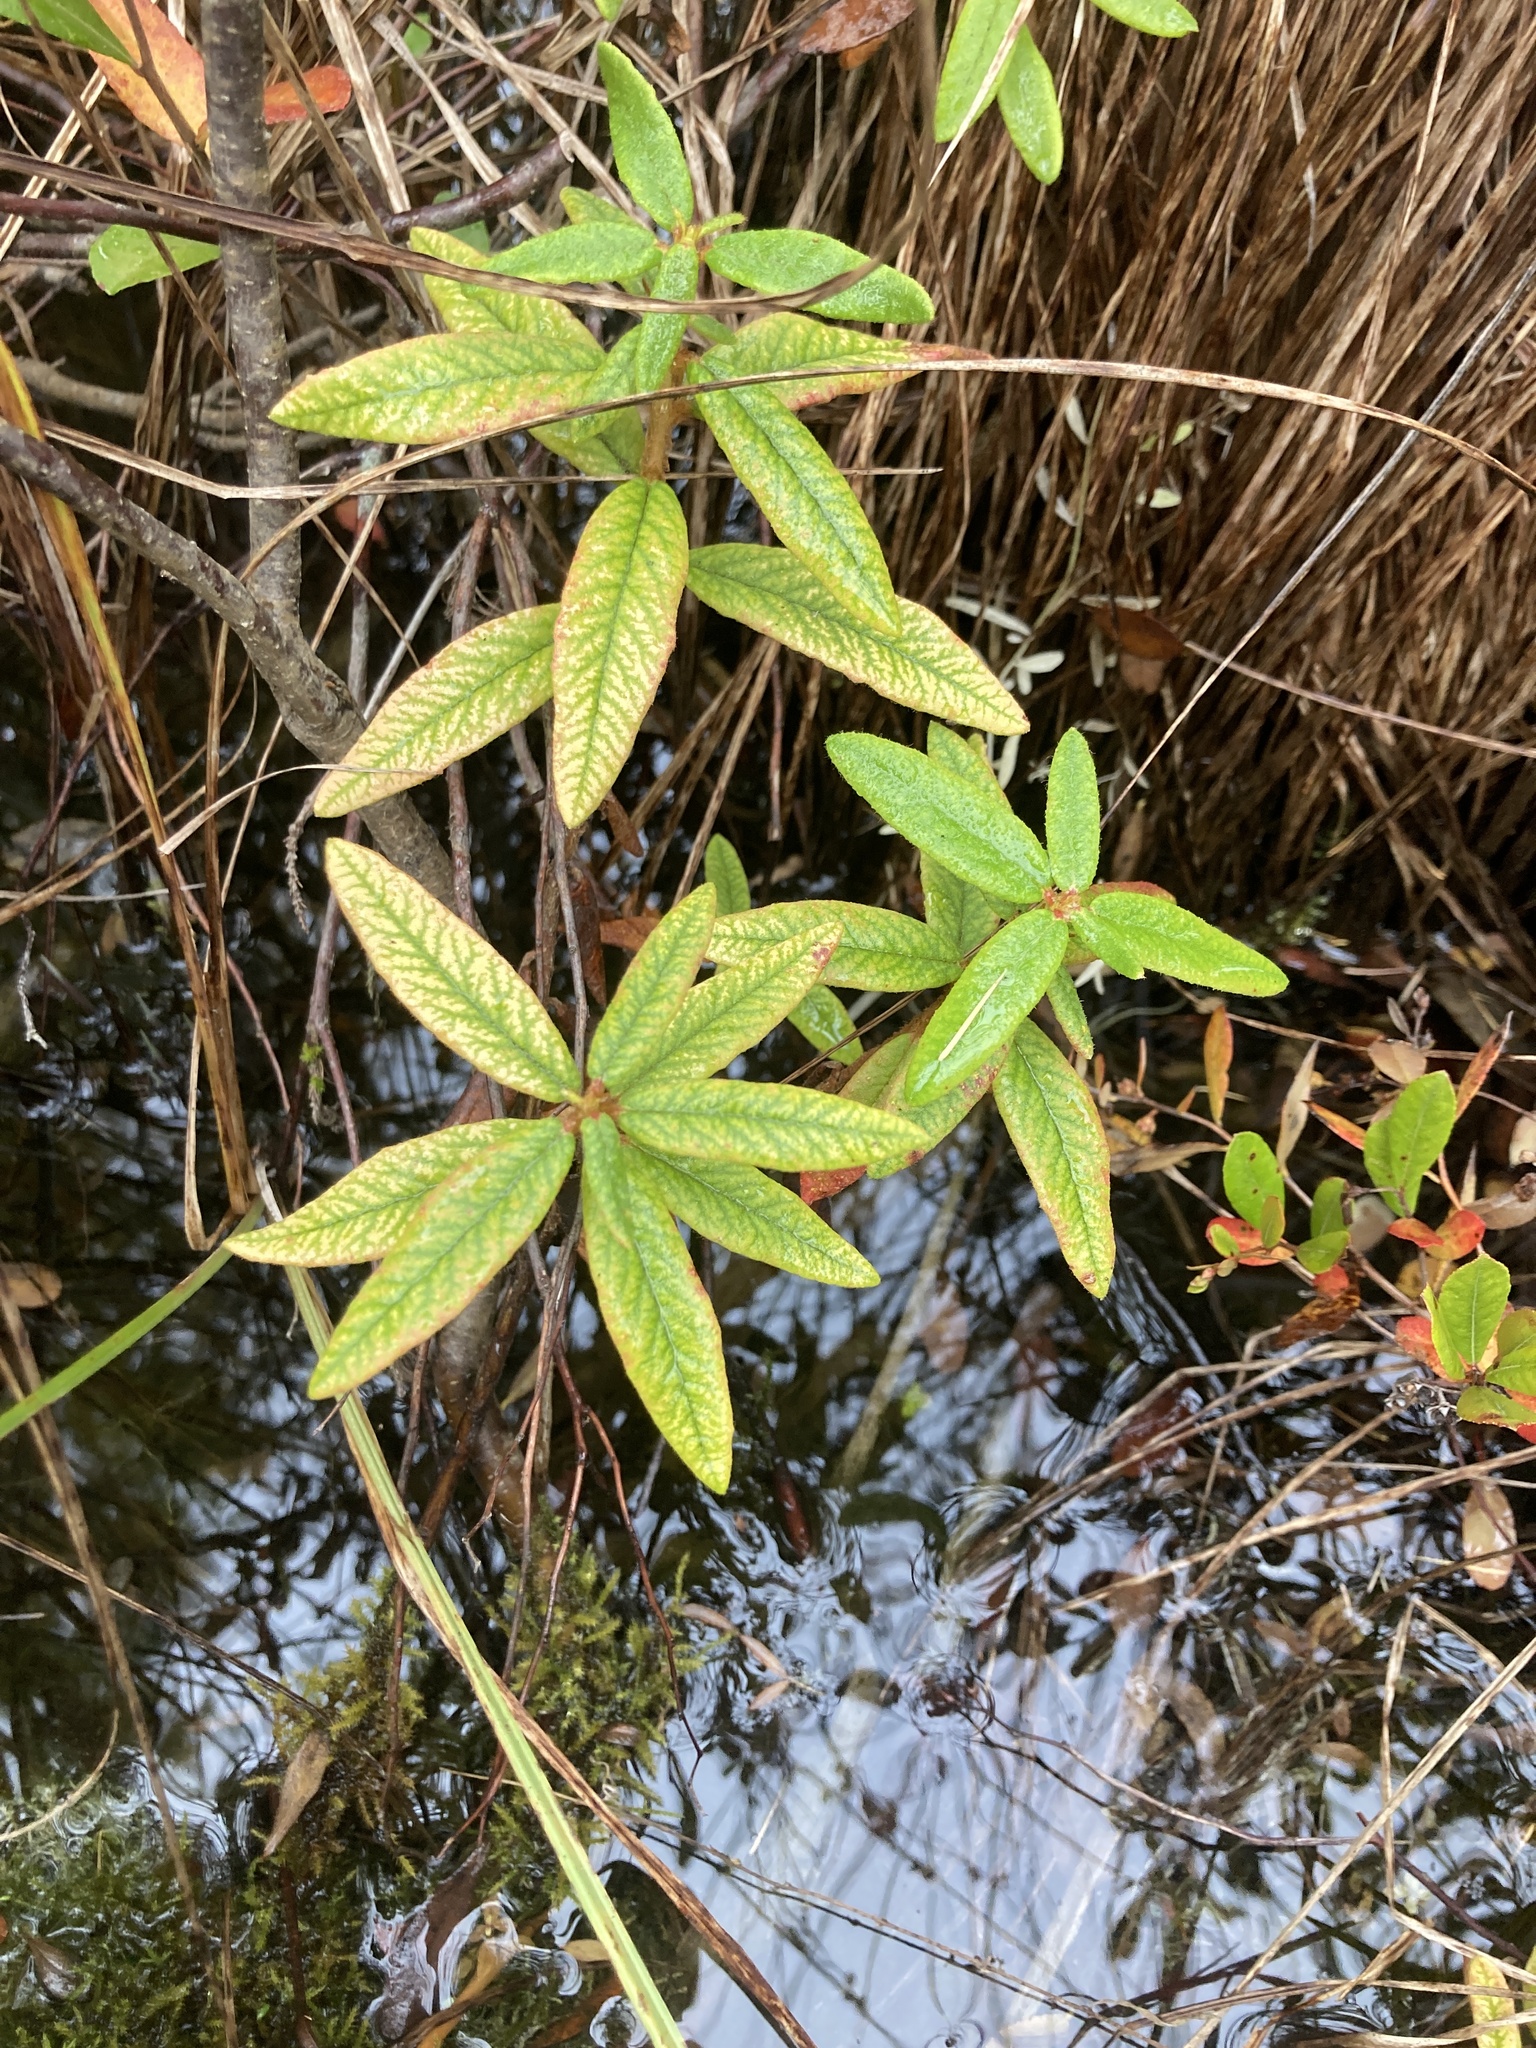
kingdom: Plantae
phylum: Tracheophyta
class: Magnoliopsida
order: Ericales
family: Ericaceae
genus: Rhododendron
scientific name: Rhododendron groenlandicum
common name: Bog labrador tea
